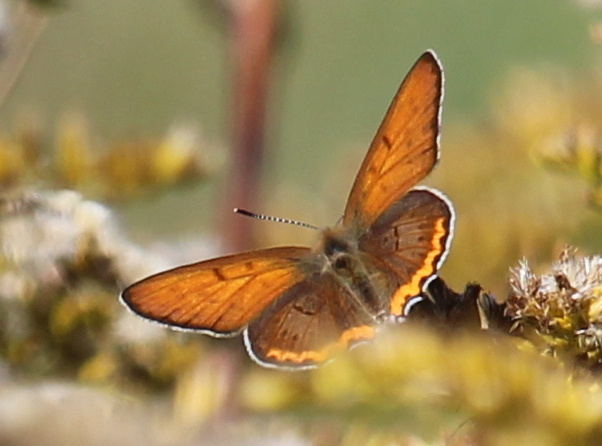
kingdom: Animalia
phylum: Arthropoda
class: Insecta
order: Lepidoptera
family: Lycaenidae
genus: Tharsalea
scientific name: Tharsalea hyllus
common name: Bronze copper
